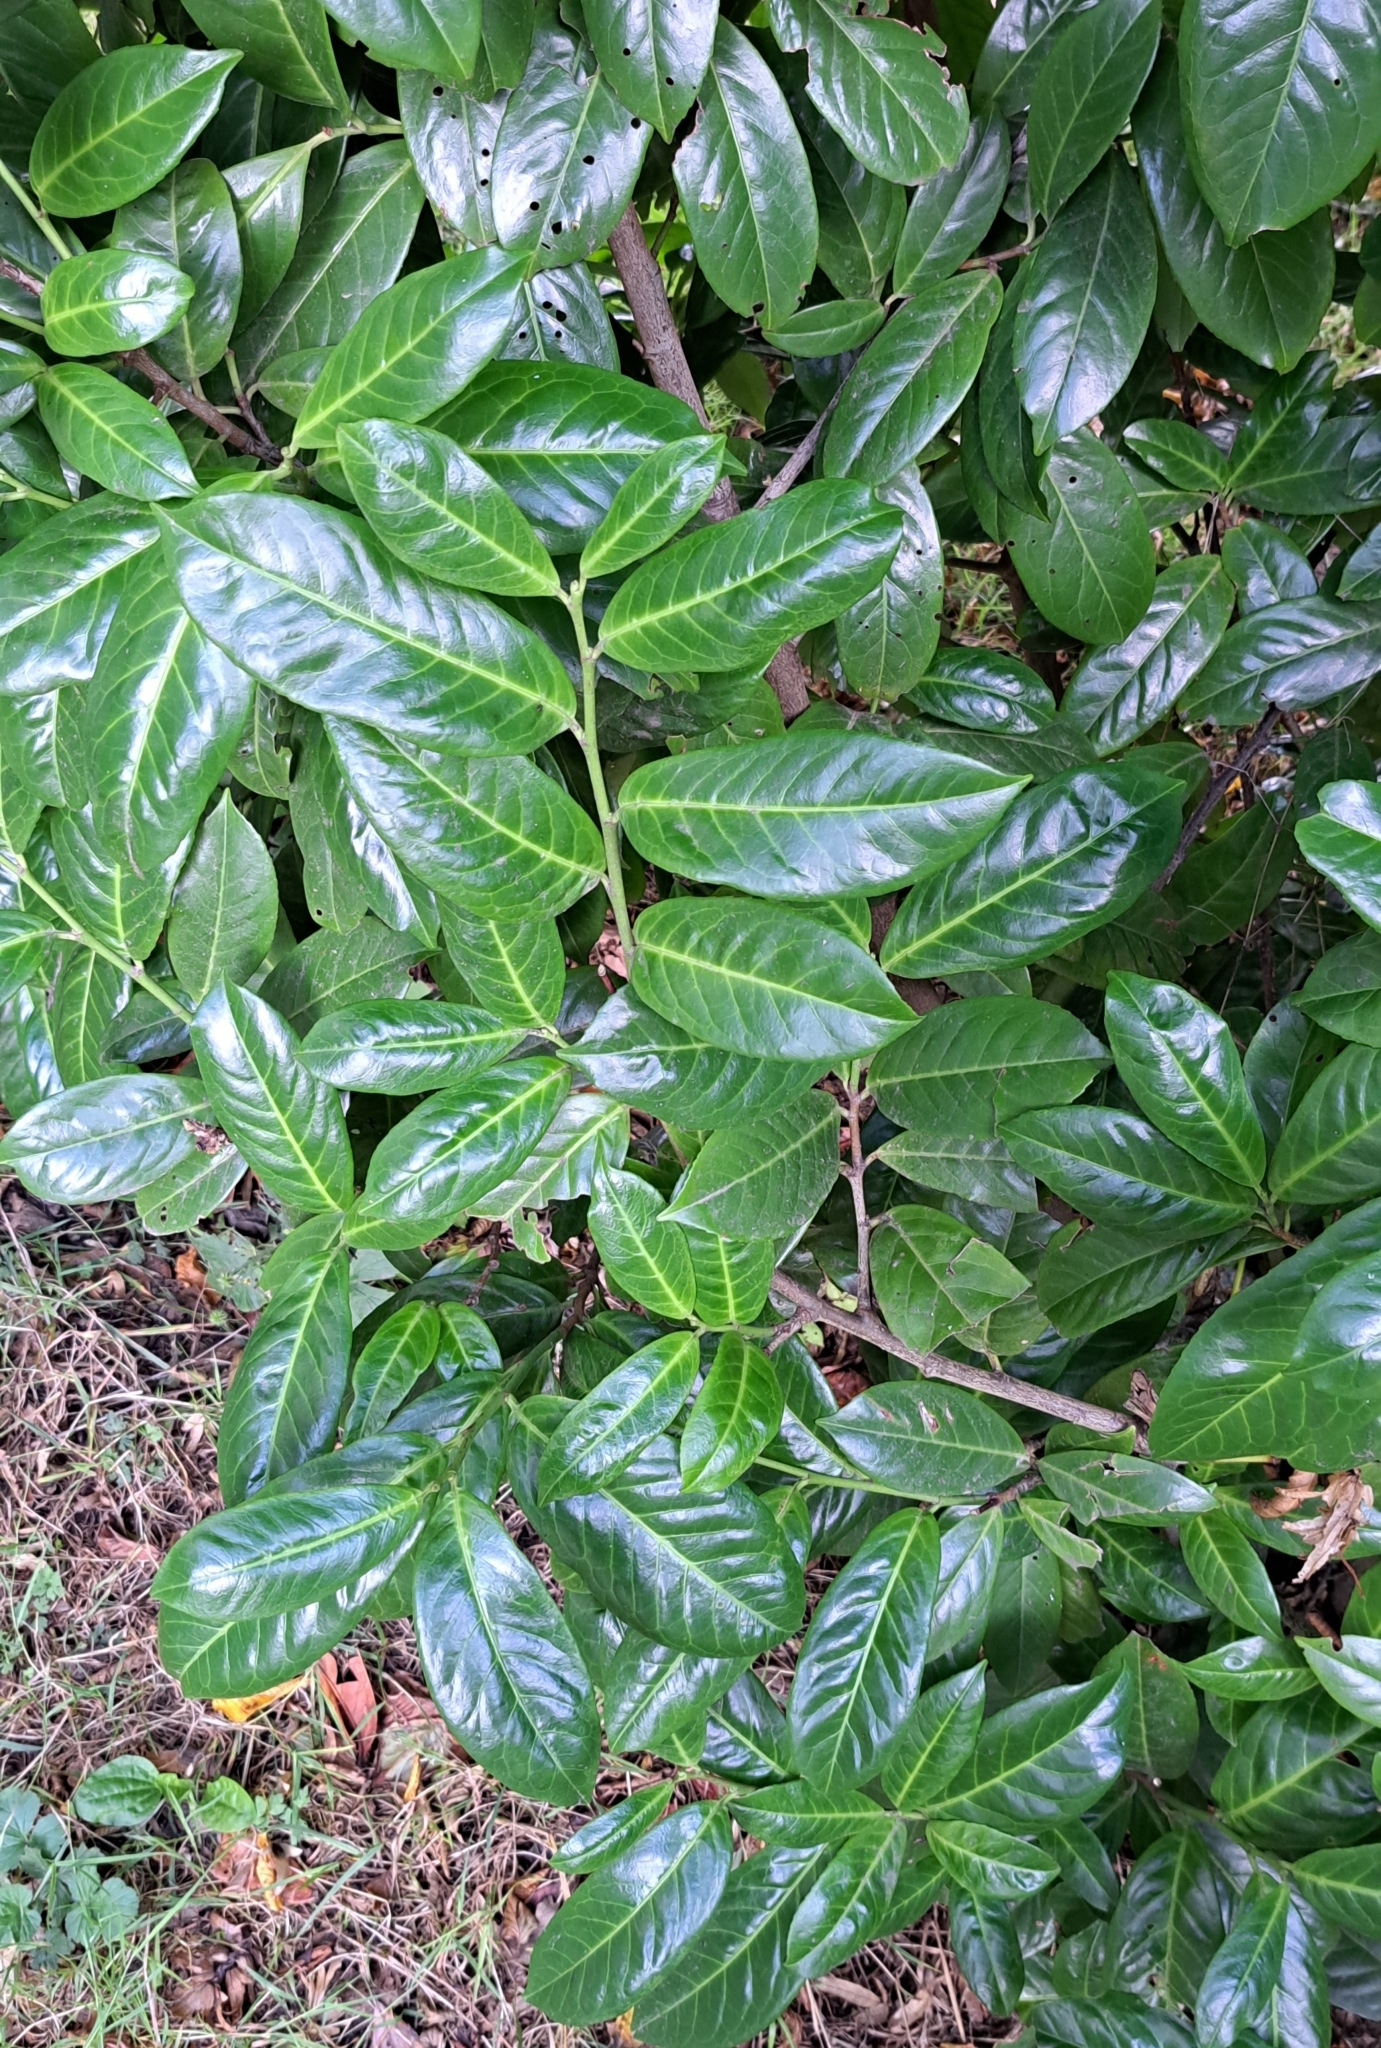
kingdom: Plantae
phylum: Tracheophyta
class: Magnoliopsida
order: Rosales
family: Rosaceae
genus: Prunus
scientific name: Prunus laurocerasus
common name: Cherry laurel
